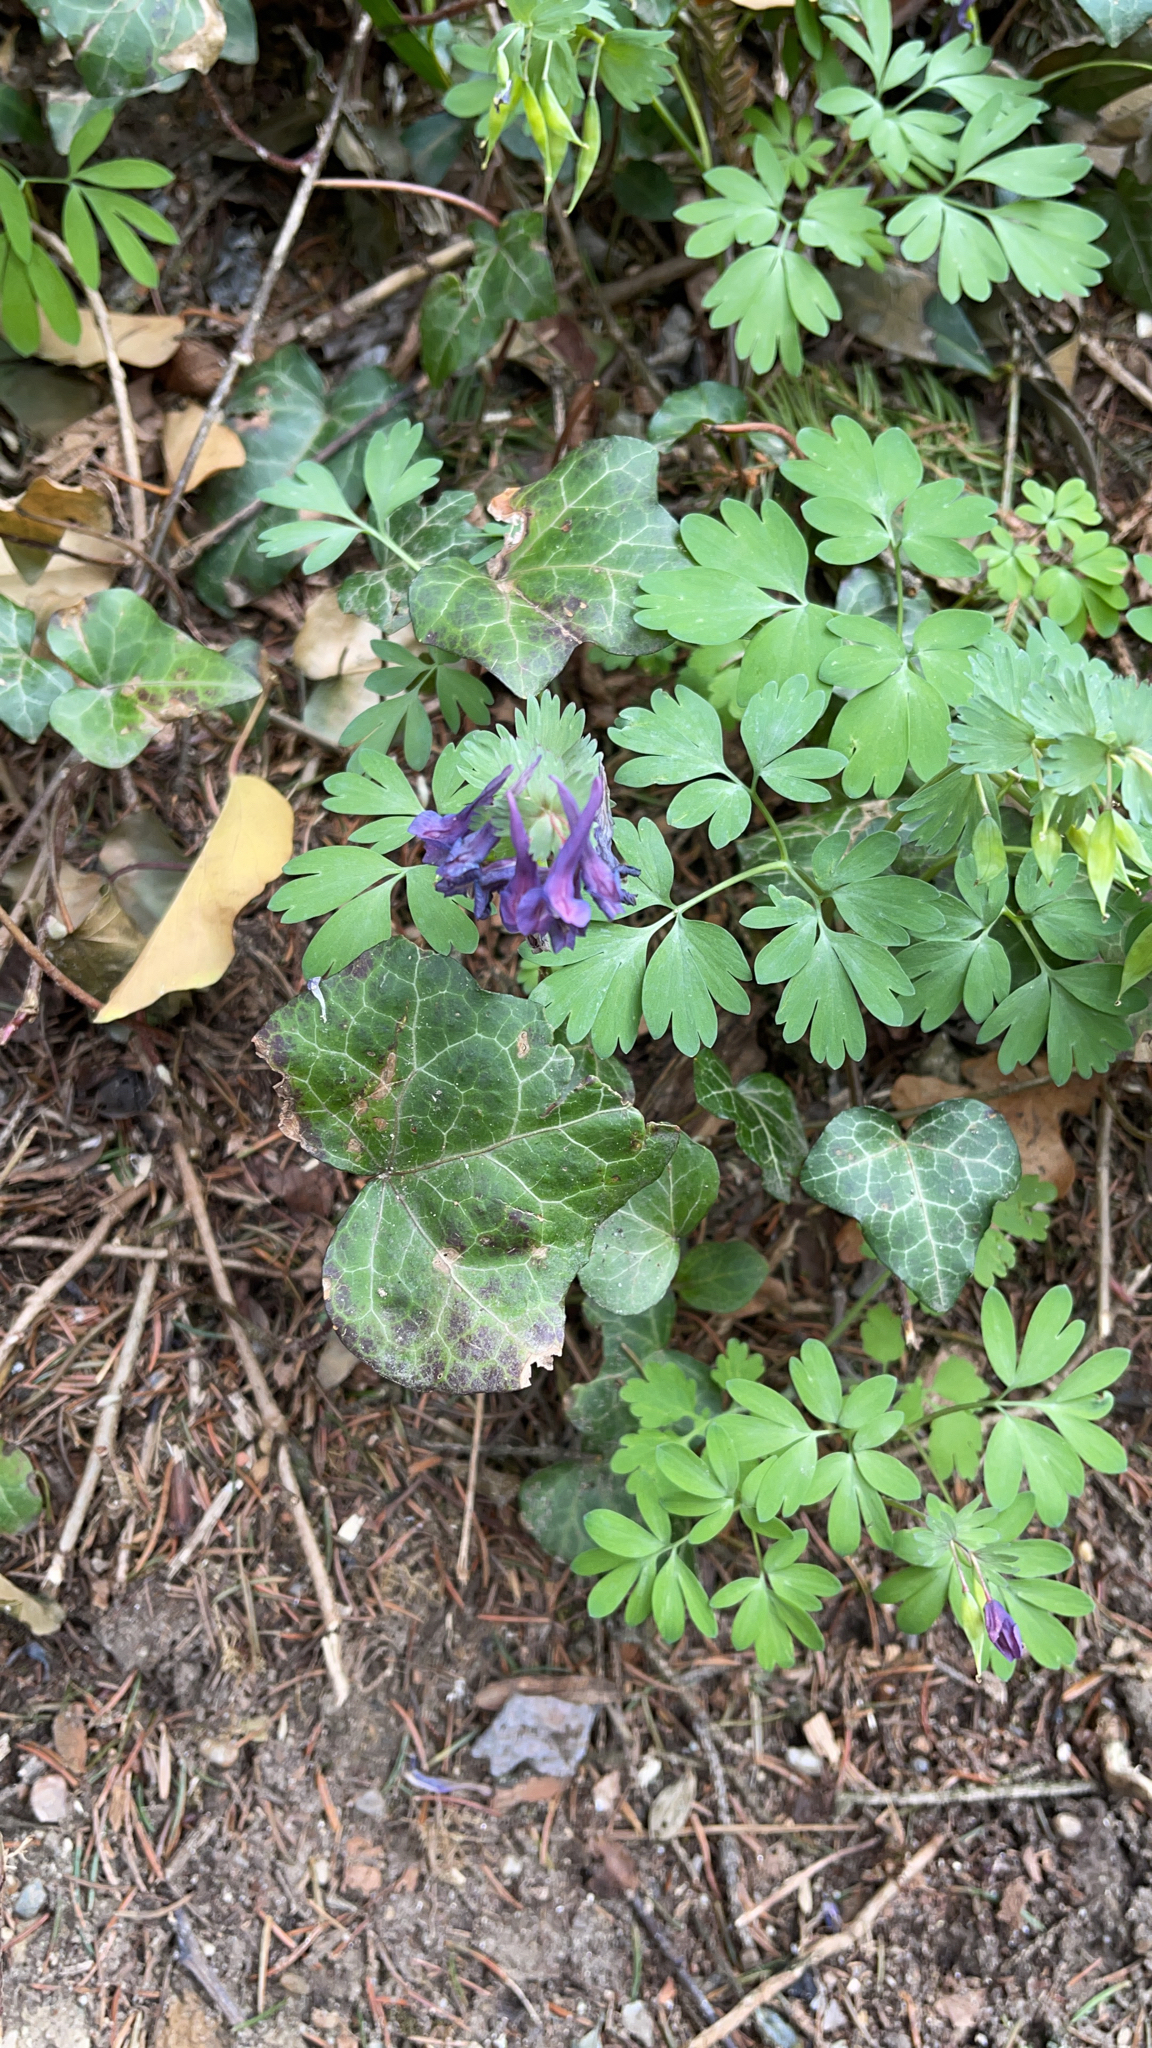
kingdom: Plantae
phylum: Tracheophyta
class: Magnoliopsida
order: Ranunculales
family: Papaveraceae
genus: Corydalis
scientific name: Corydalis solida
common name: Bird-in-a-bush
